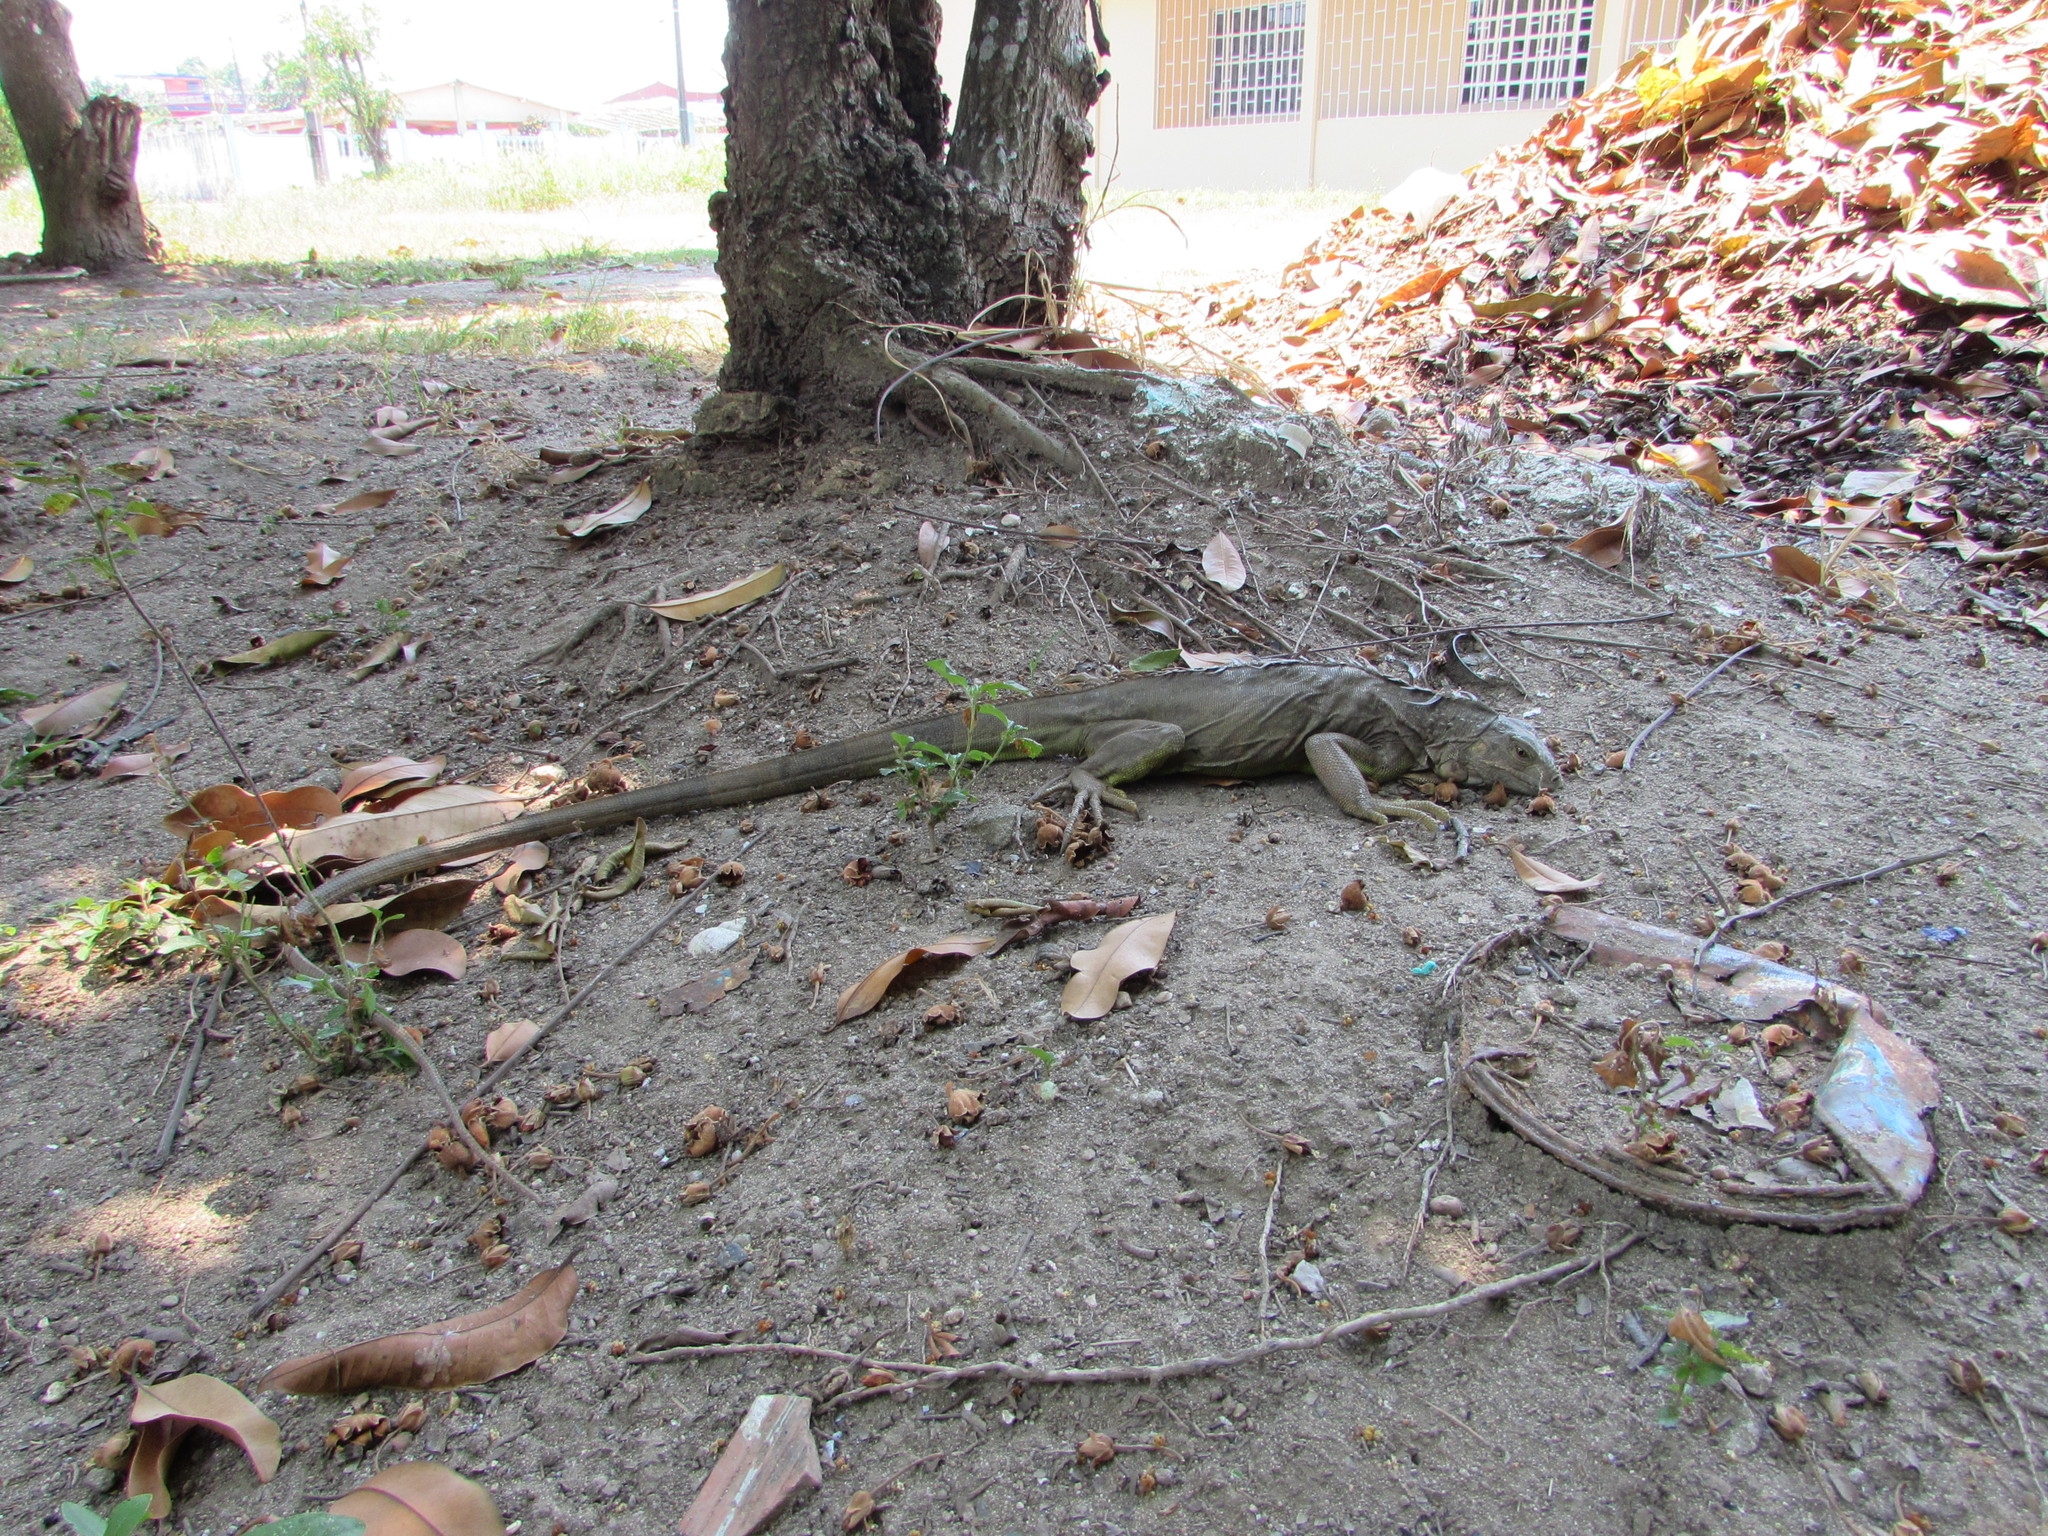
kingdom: Animalia
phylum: Chordata
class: Squamata
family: Iguanidae
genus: Iguana
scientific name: Iguana iguana
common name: Green iguana
